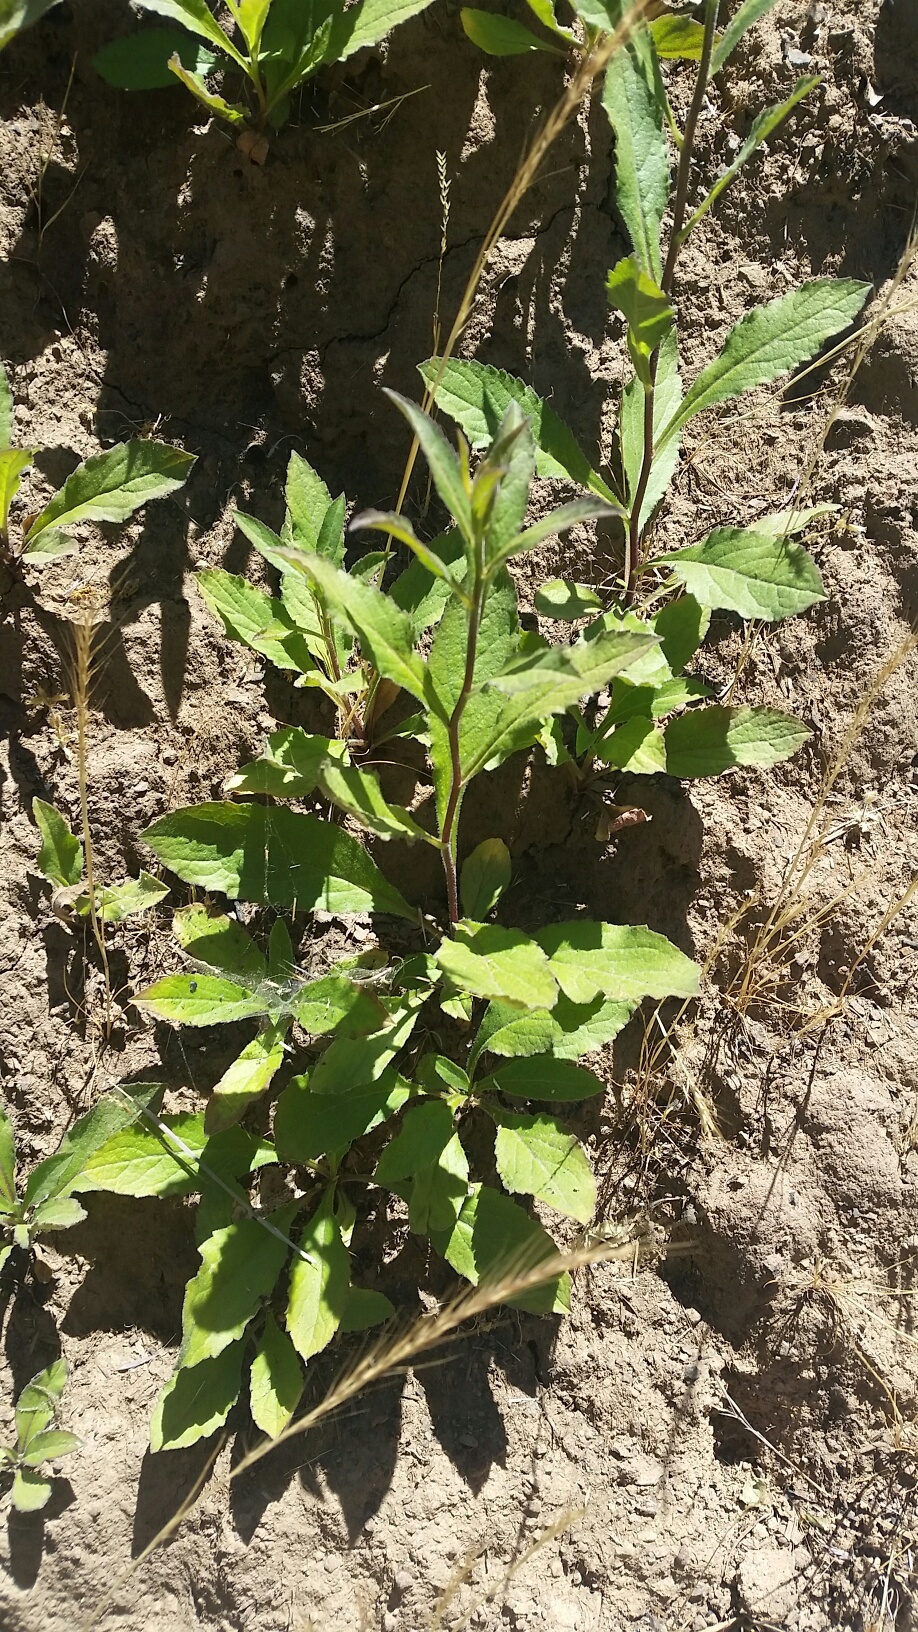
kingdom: Plantae
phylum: Tracheophyta
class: Magnoliopsida
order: Asterales
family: Asteraceae
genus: Eurybia
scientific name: Eurybia radulina
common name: Rough-leaved aster
